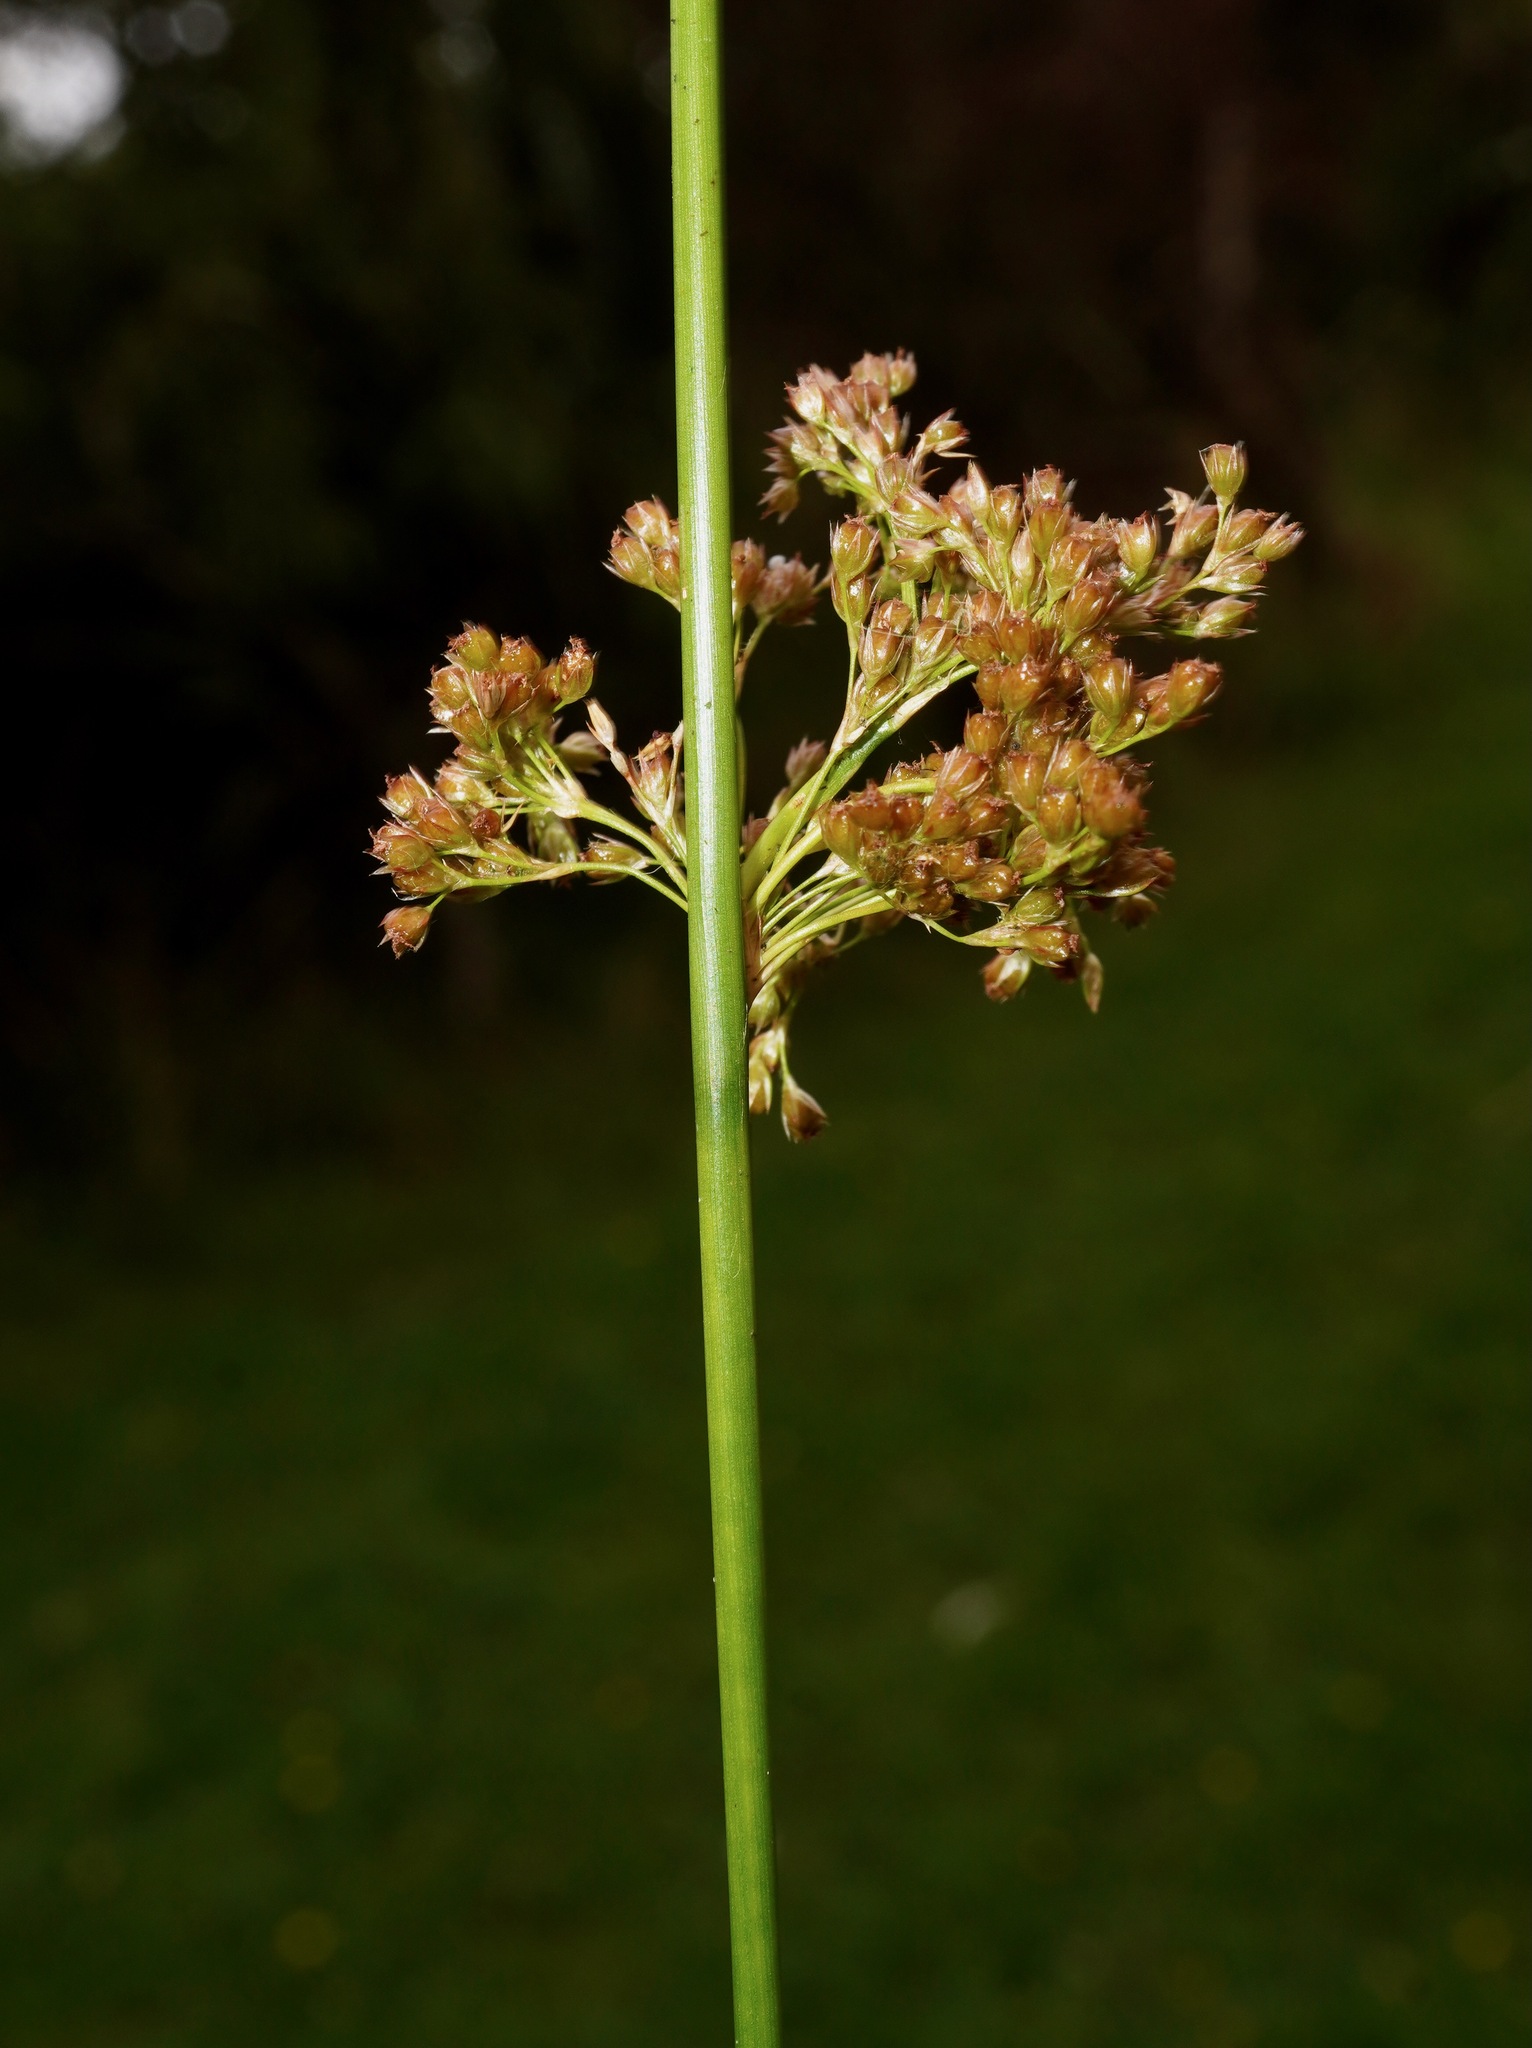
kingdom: Plantae
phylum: Tracheophyta
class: Liliopsida
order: Poales
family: Juncaceae
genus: Juncus
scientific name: Juncus effusus
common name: Soft rush
